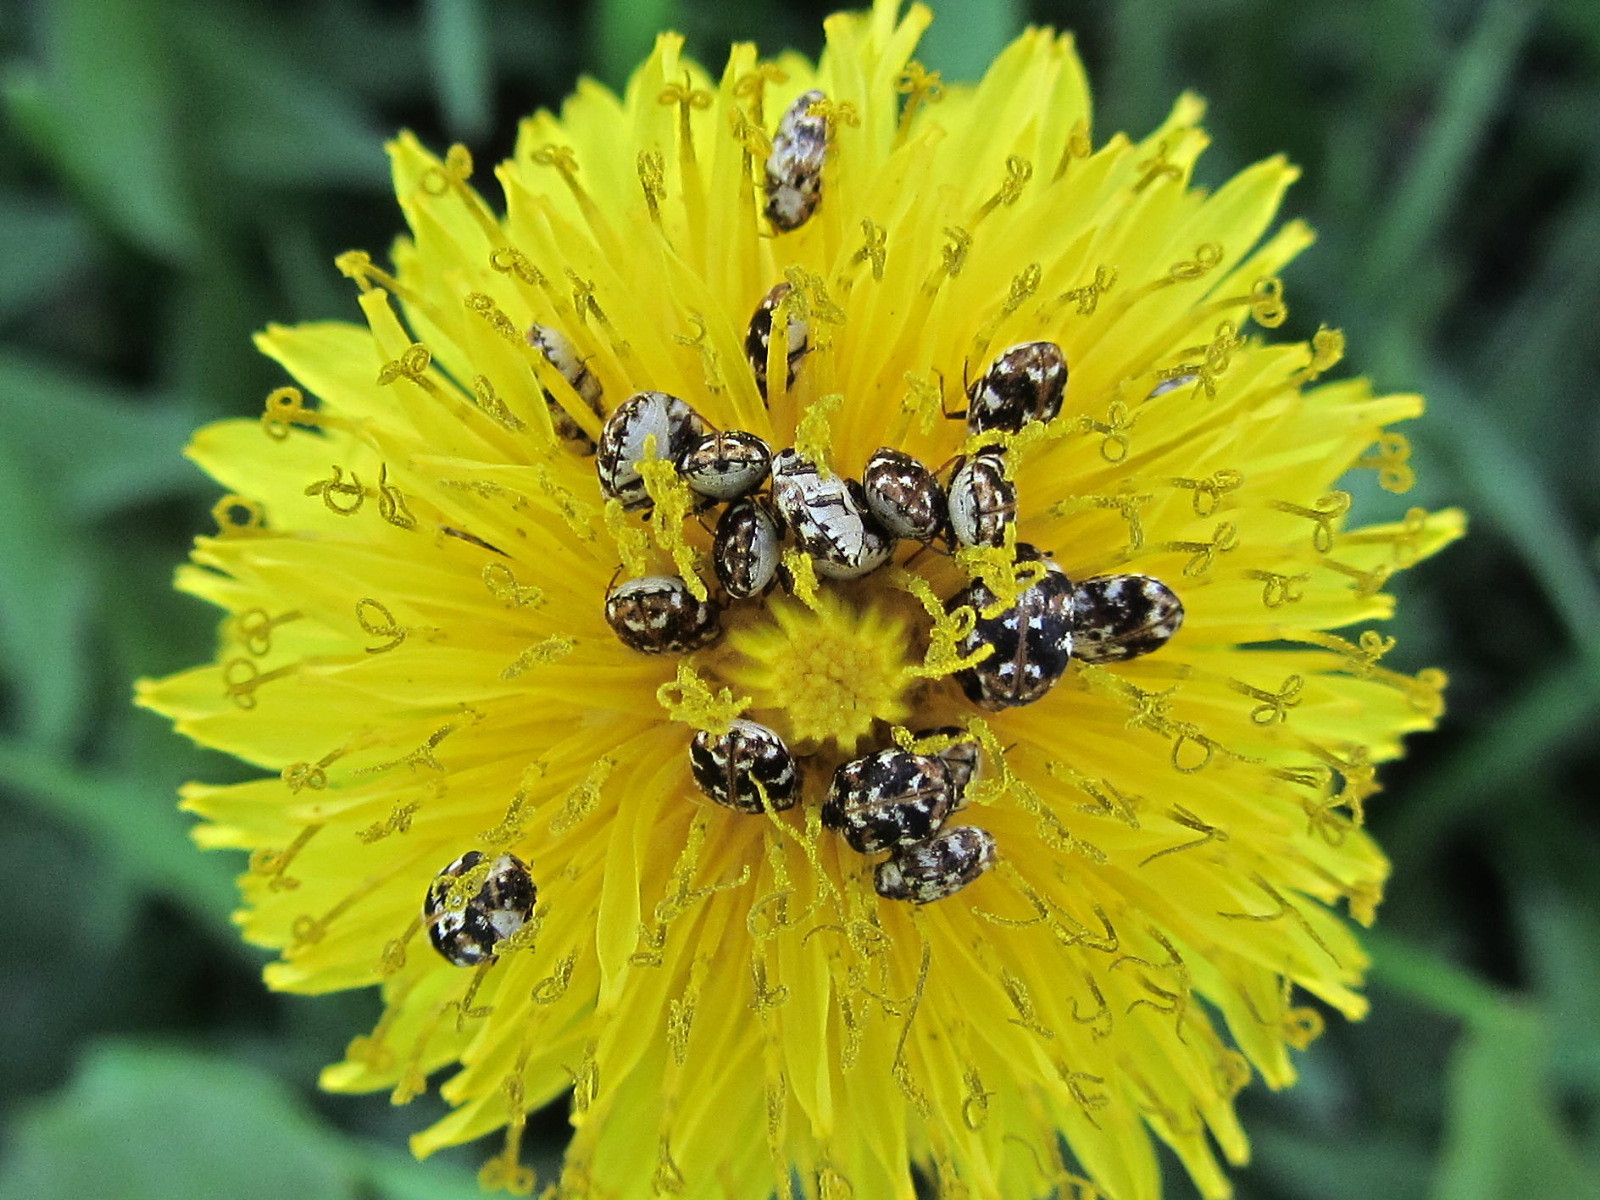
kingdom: Animalia
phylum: Arthropoda
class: Insecta
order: Coleoptera
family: Dermestidae
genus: Anthrenus
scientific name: Anthrenus picturatus
